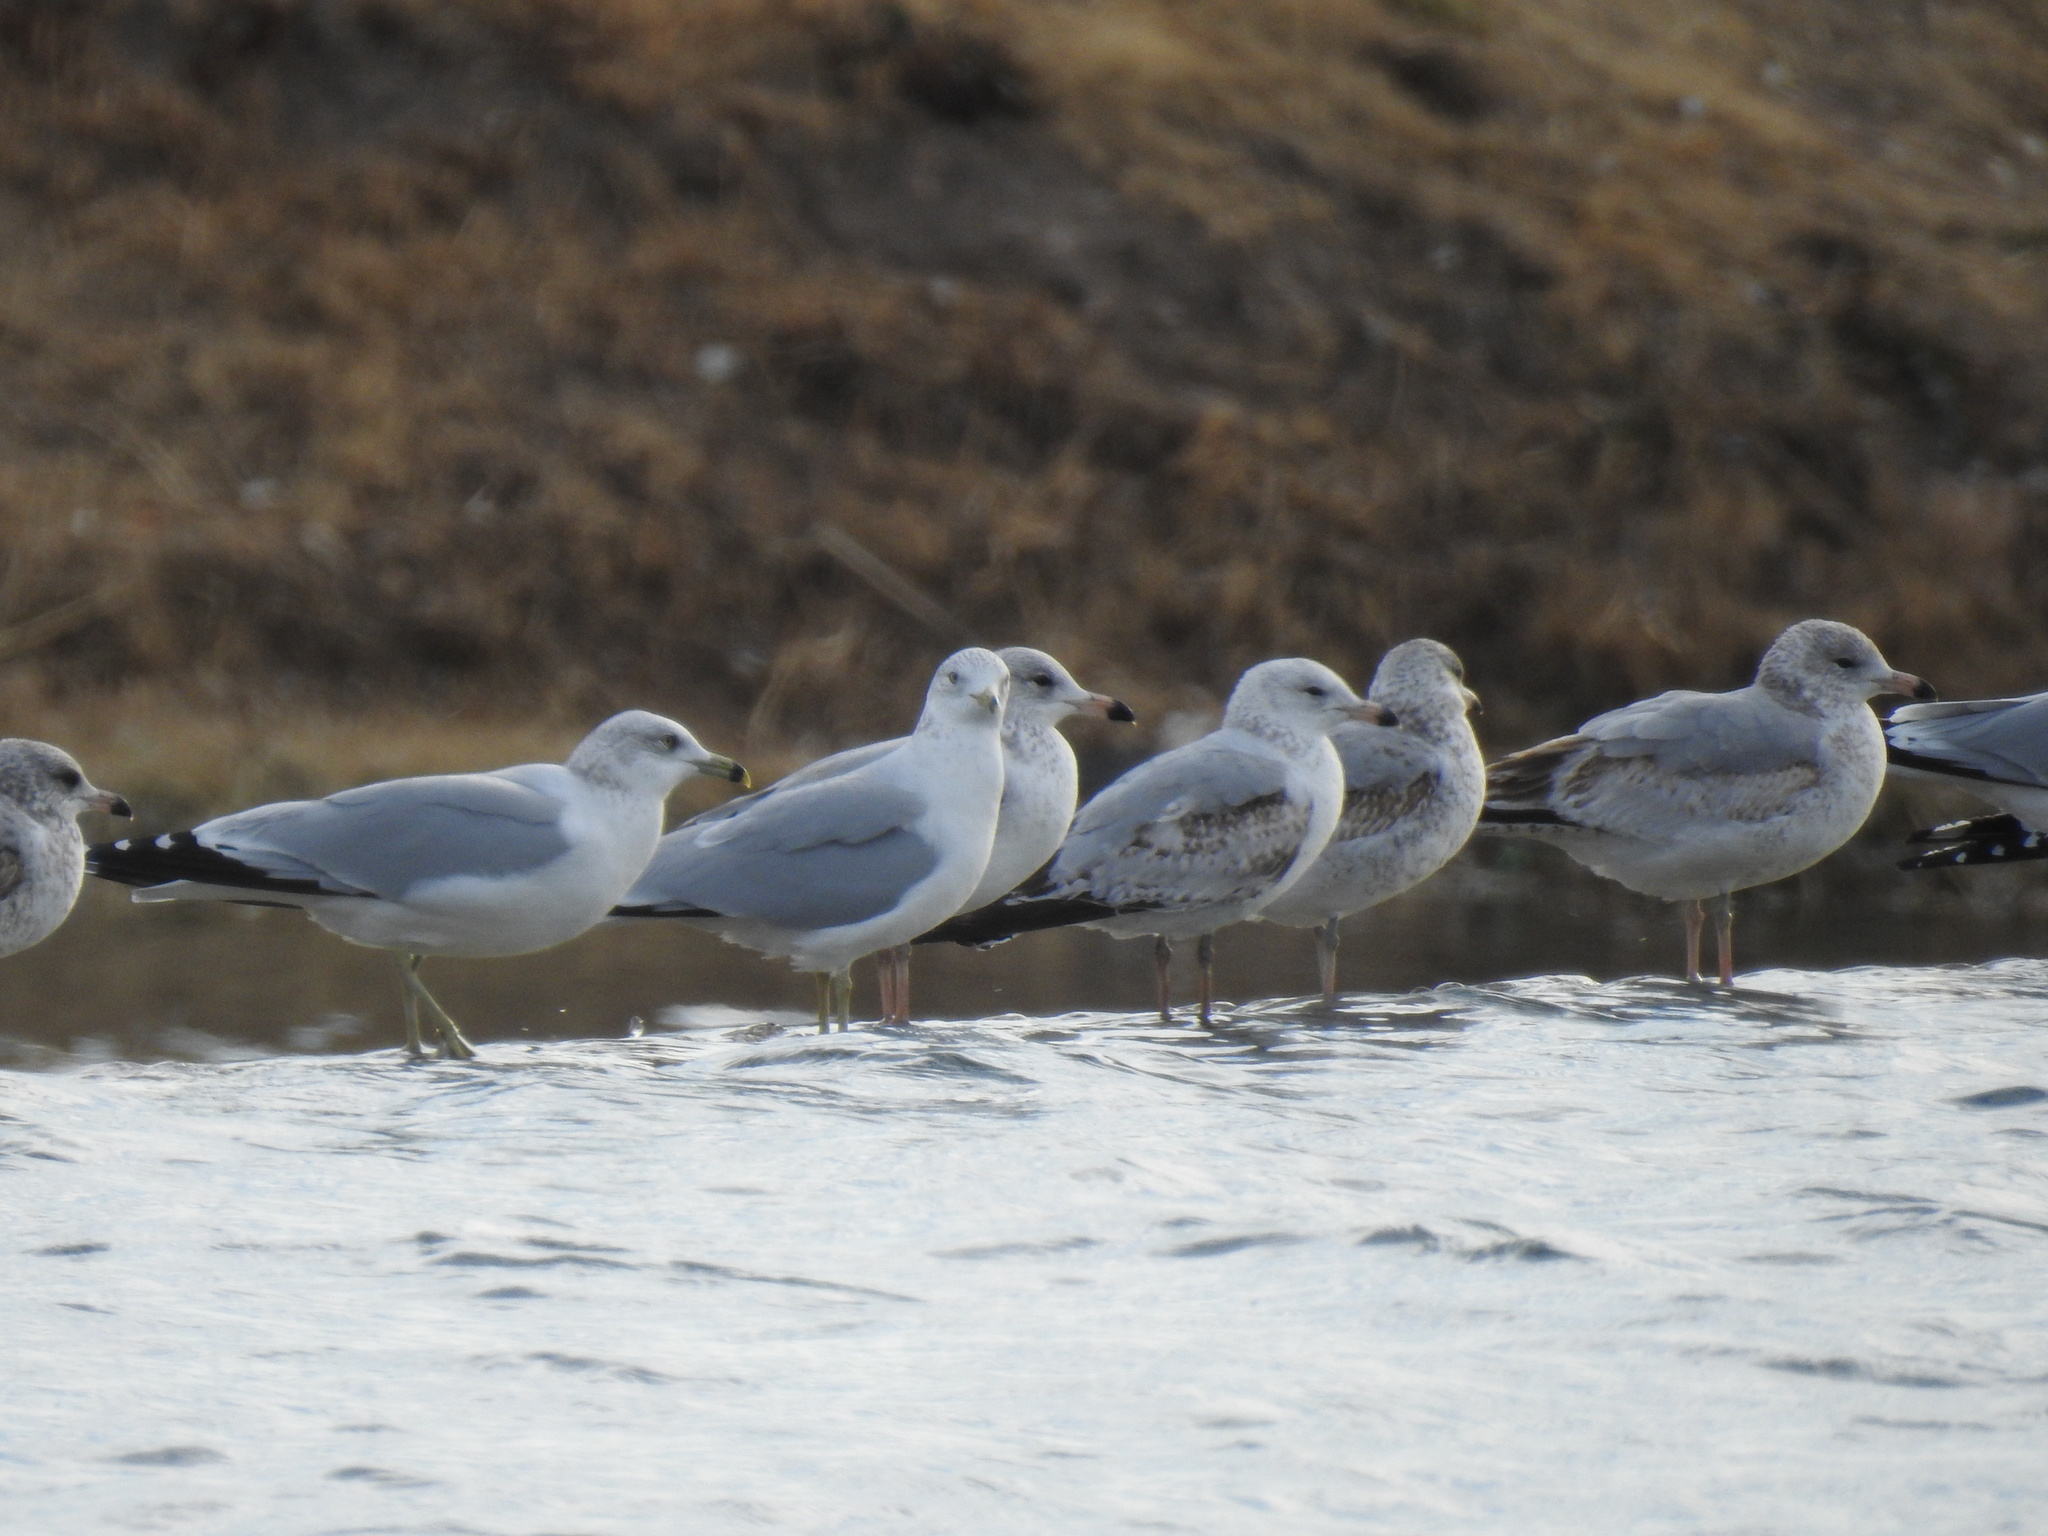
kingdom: Animalia
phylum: Chordata
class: Aves
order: Charadriiformes
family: Laridae
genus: Larus
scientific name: Larus delawarensis
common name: Ring-billed gull
